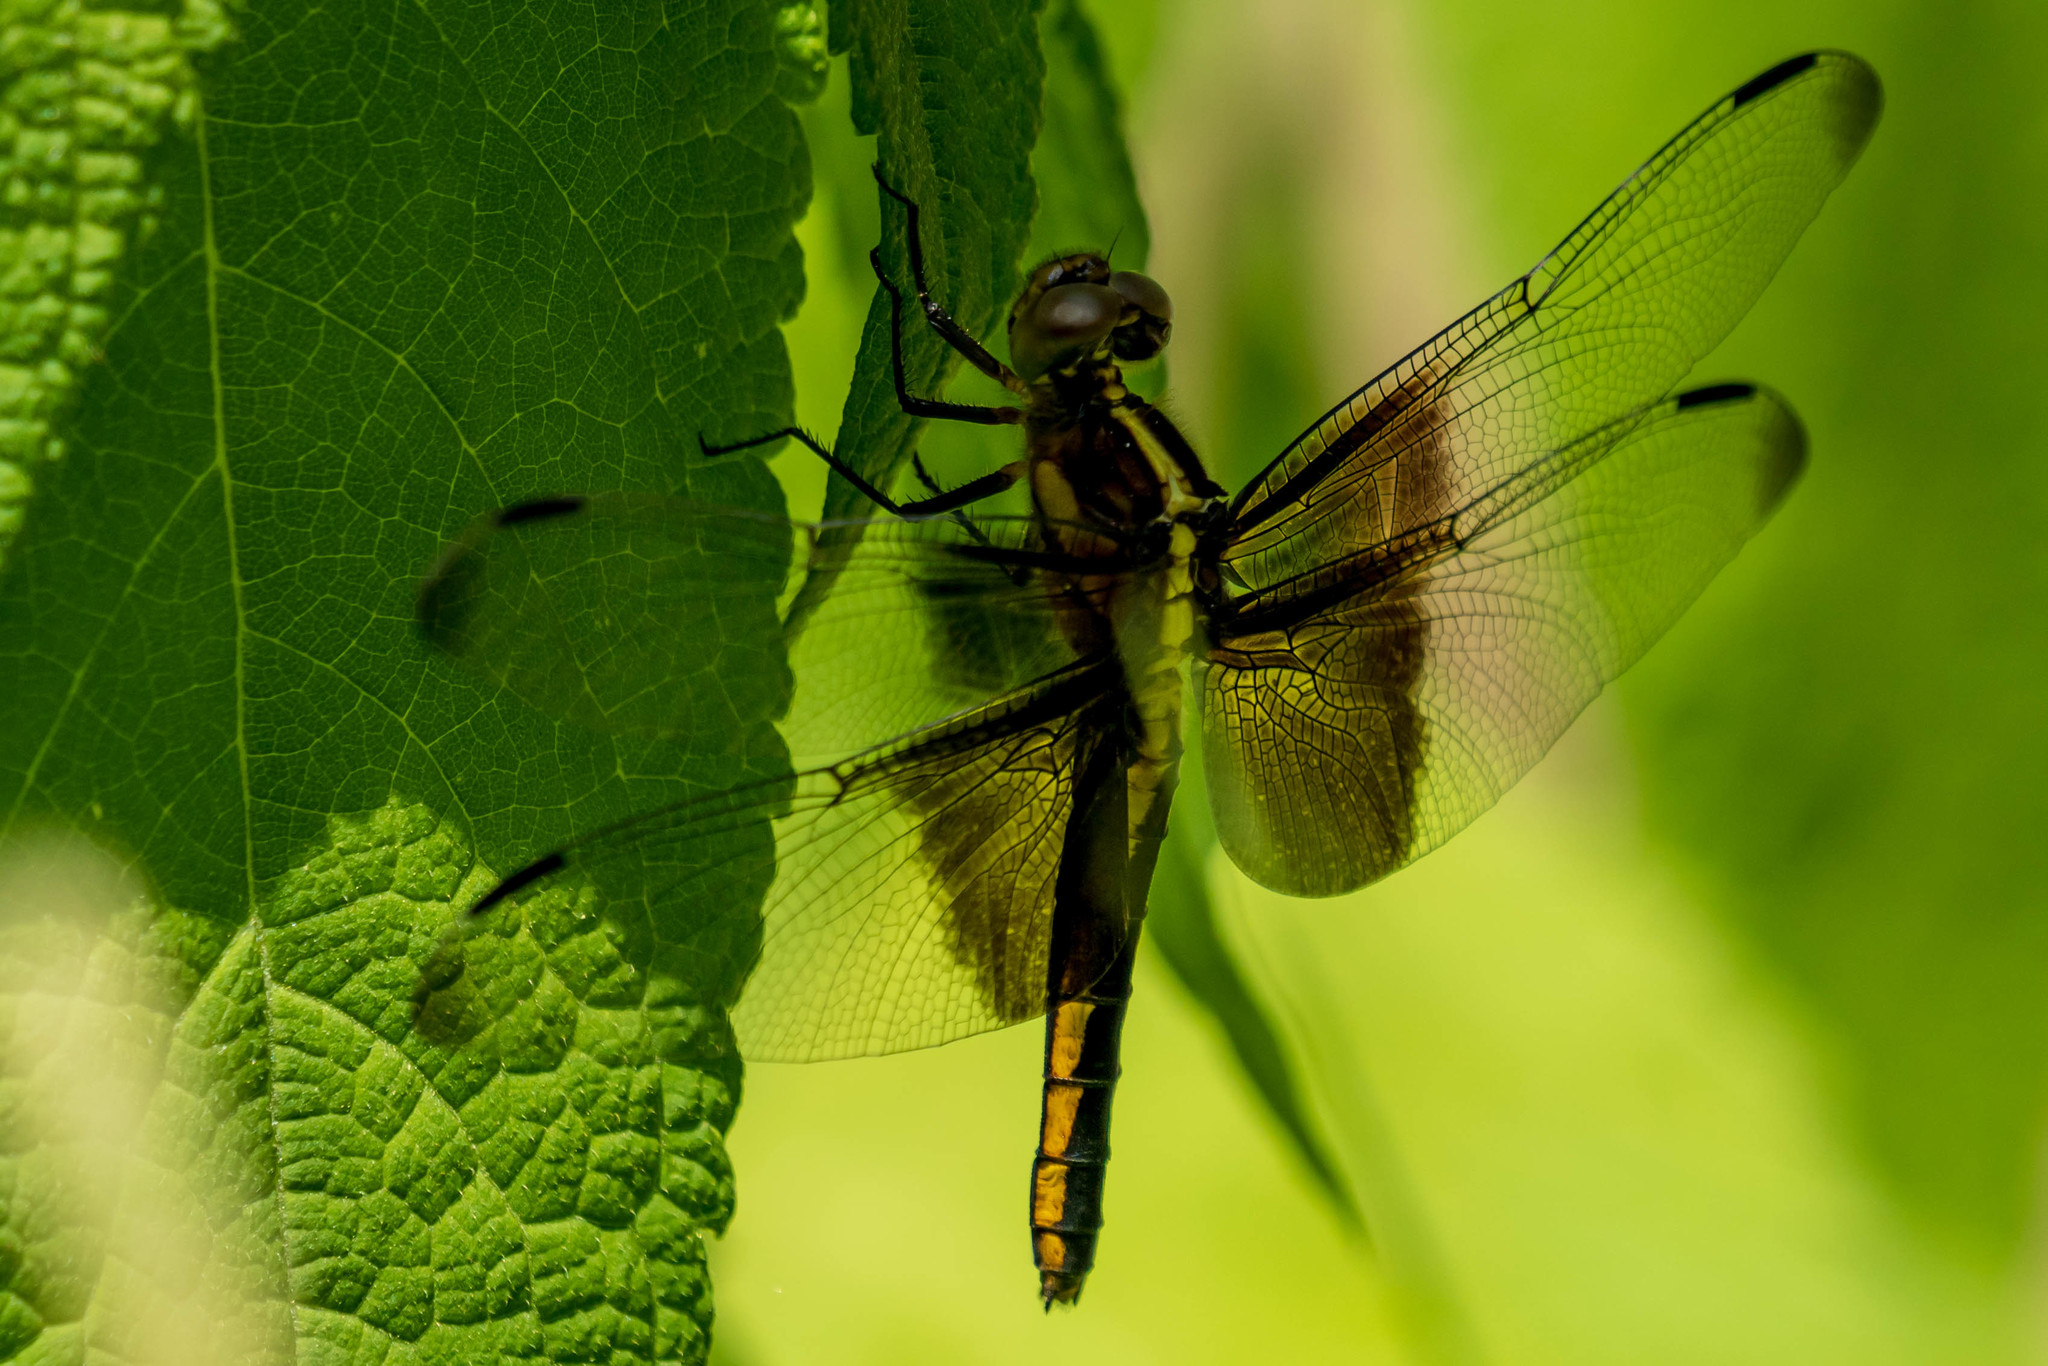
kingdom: Animalia
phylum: Arthropoda
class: Insecta
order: Odonata
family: Libellulidae
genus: Libellula
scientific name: Libellula luctuosa
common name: Widow skimmer
